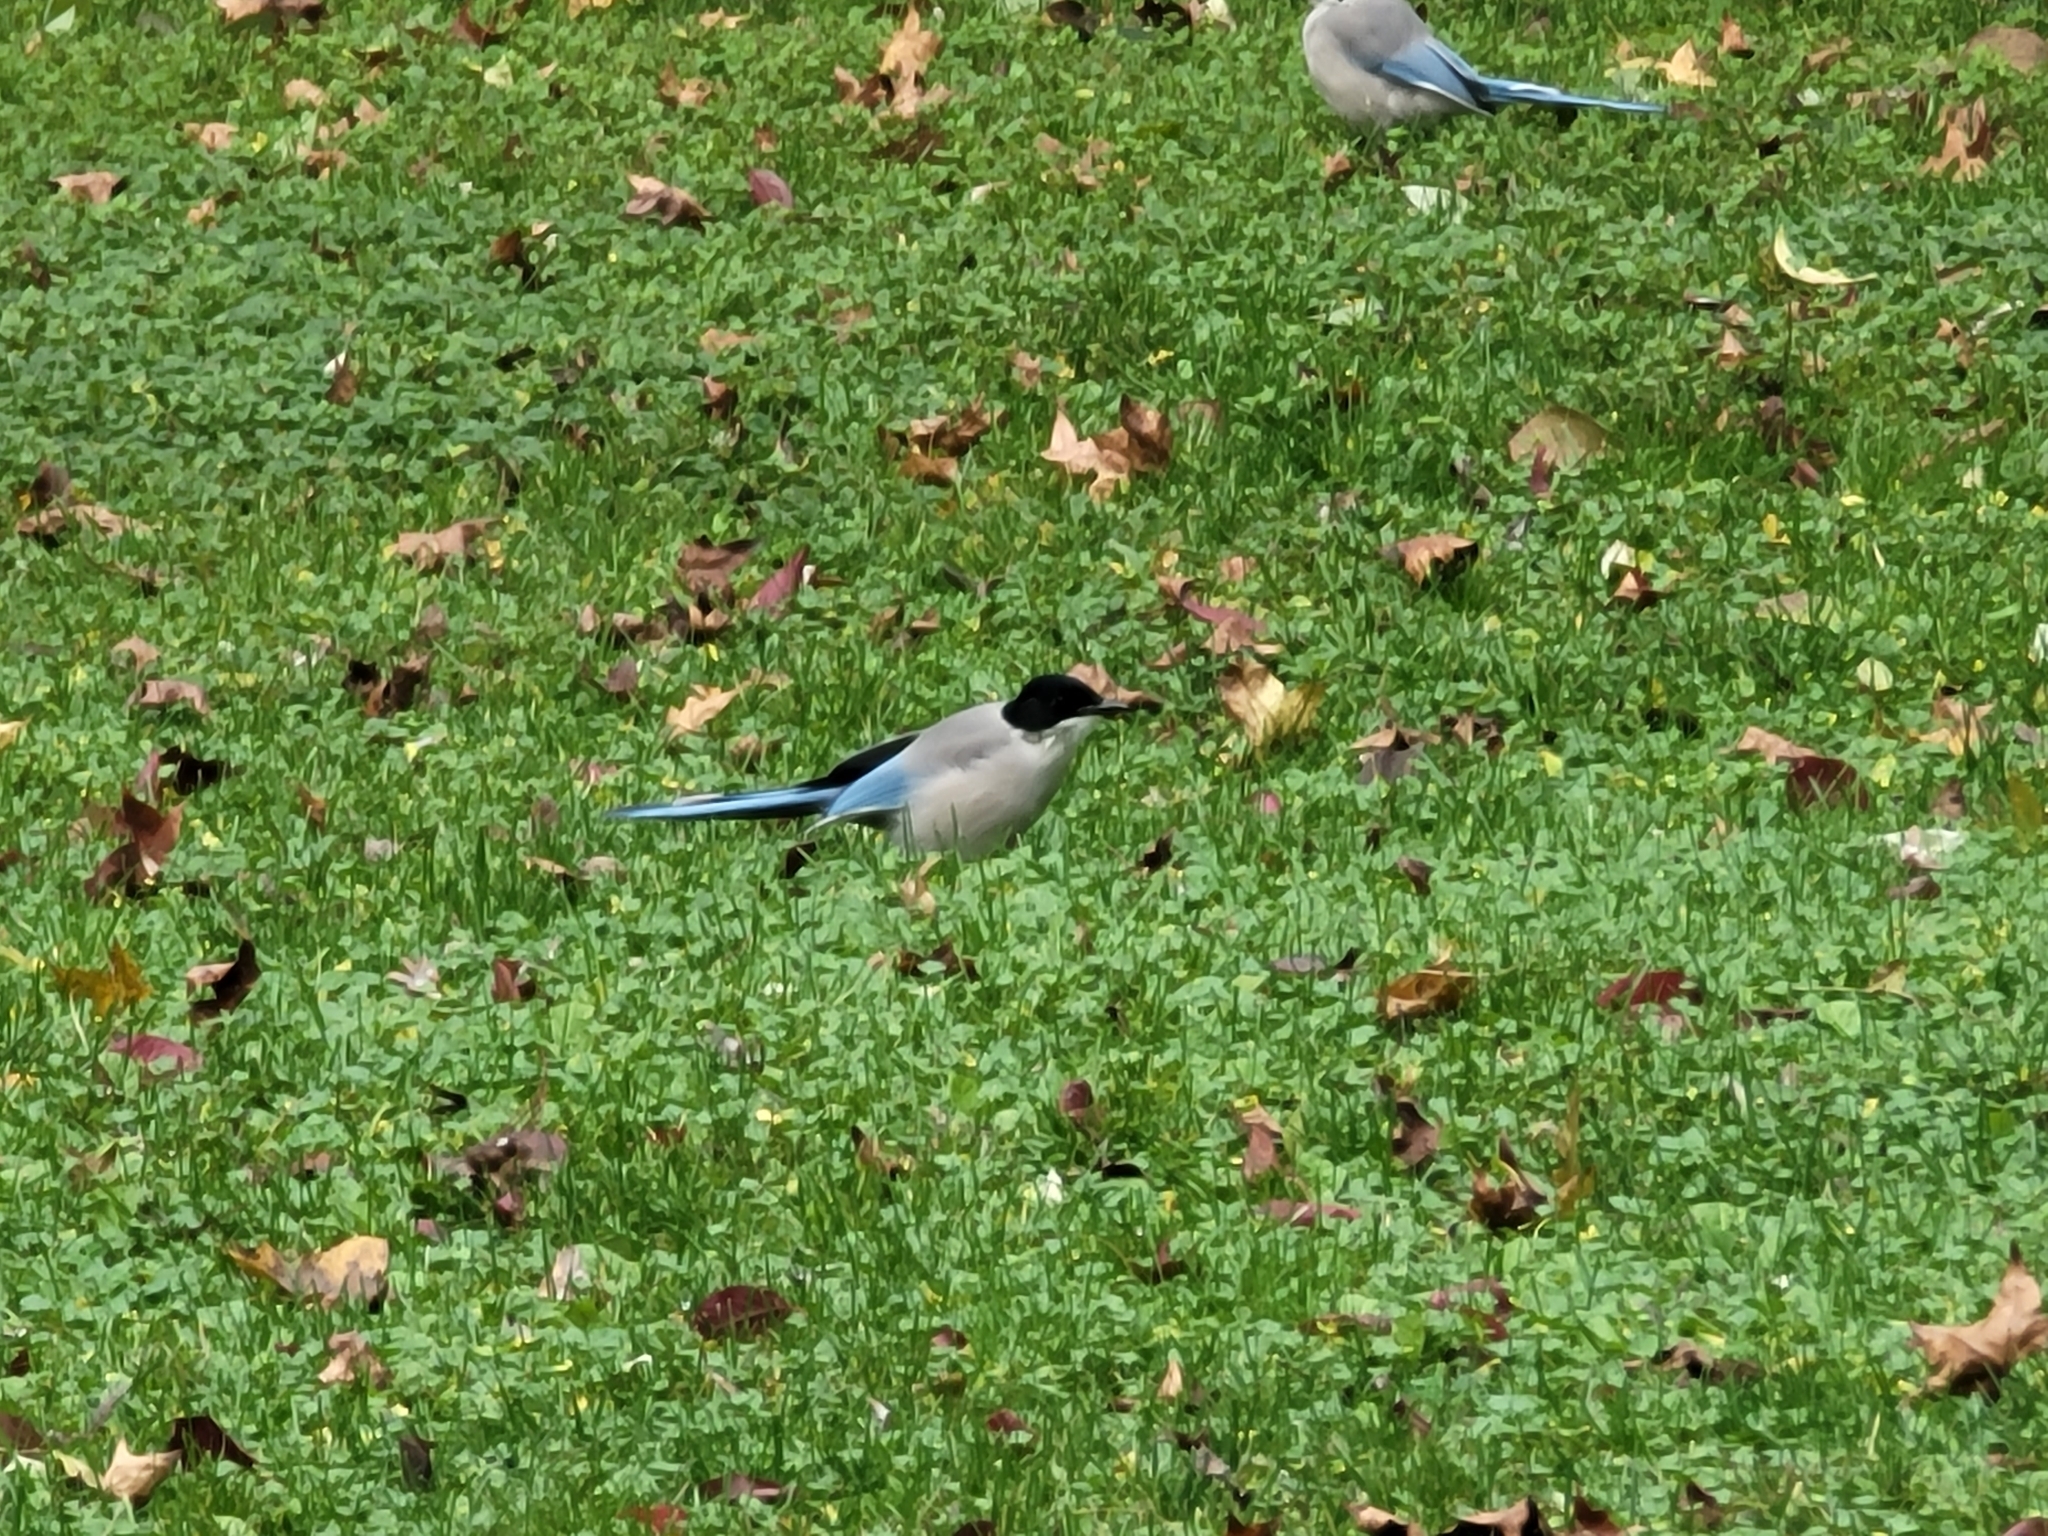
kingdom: Animalia
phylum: Chordata
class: Aves
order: Passeriformes
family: Corvidae
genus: Cyanopica
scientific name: Cyanopica cyanus
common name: Azure-winged magpie
